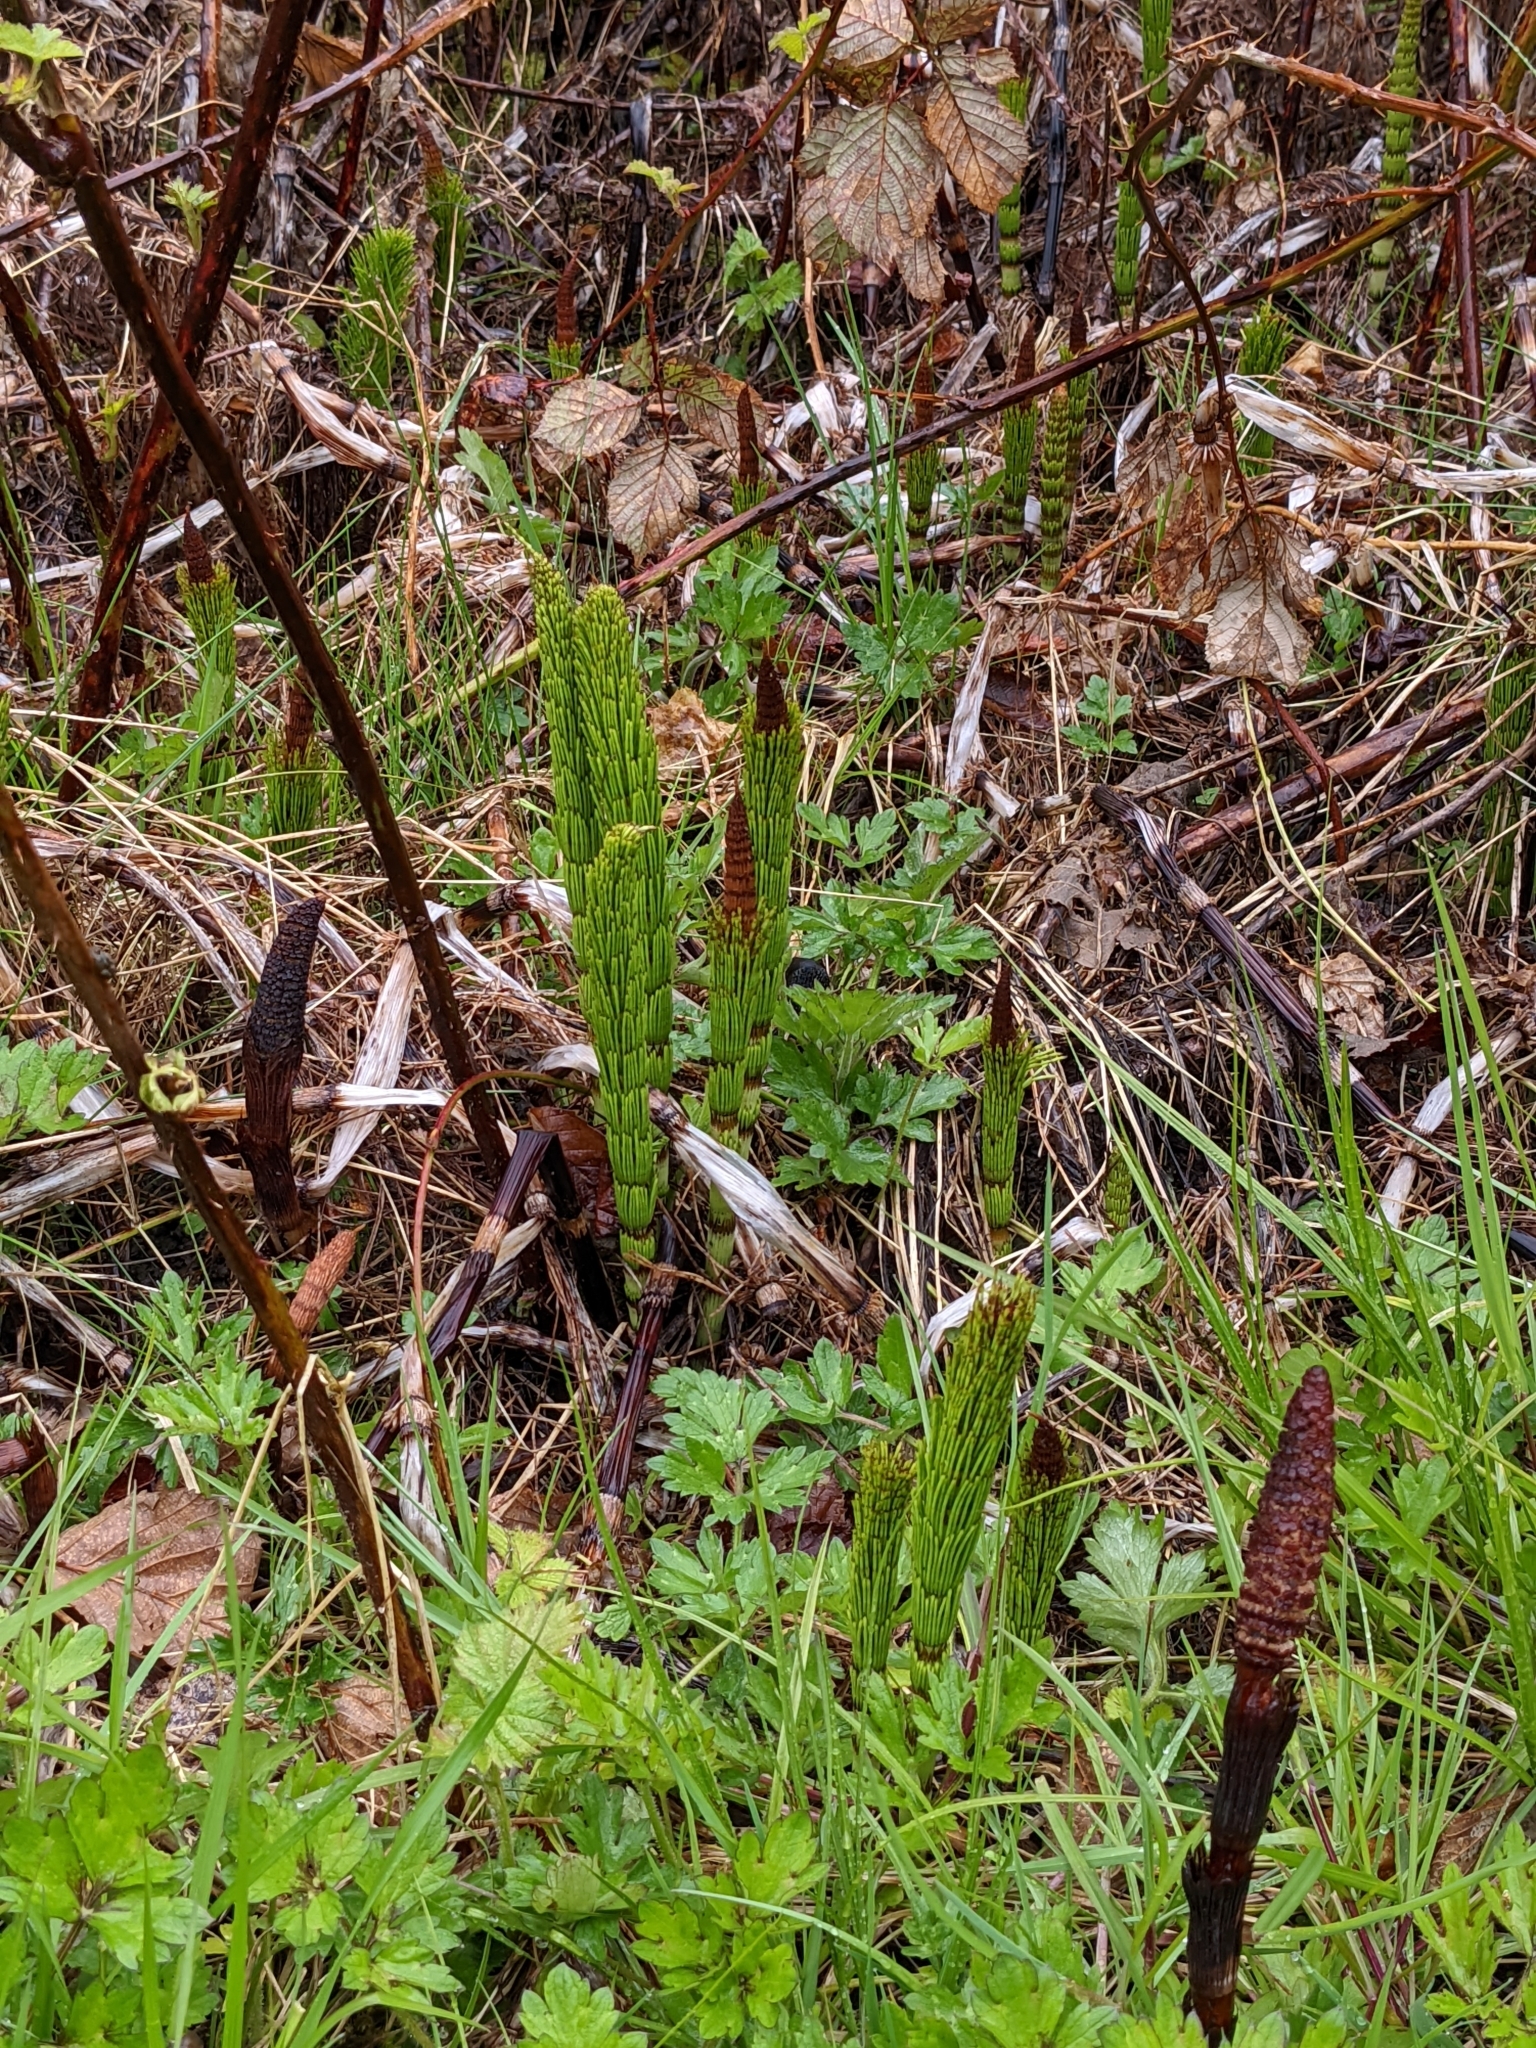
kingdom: Plantae
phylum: Tracheophyta
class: Polypodiopsida
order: Equisetales
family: Equisetaceae
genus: Equisetum
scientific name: Equisetum telmateia
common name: Great horsetail
